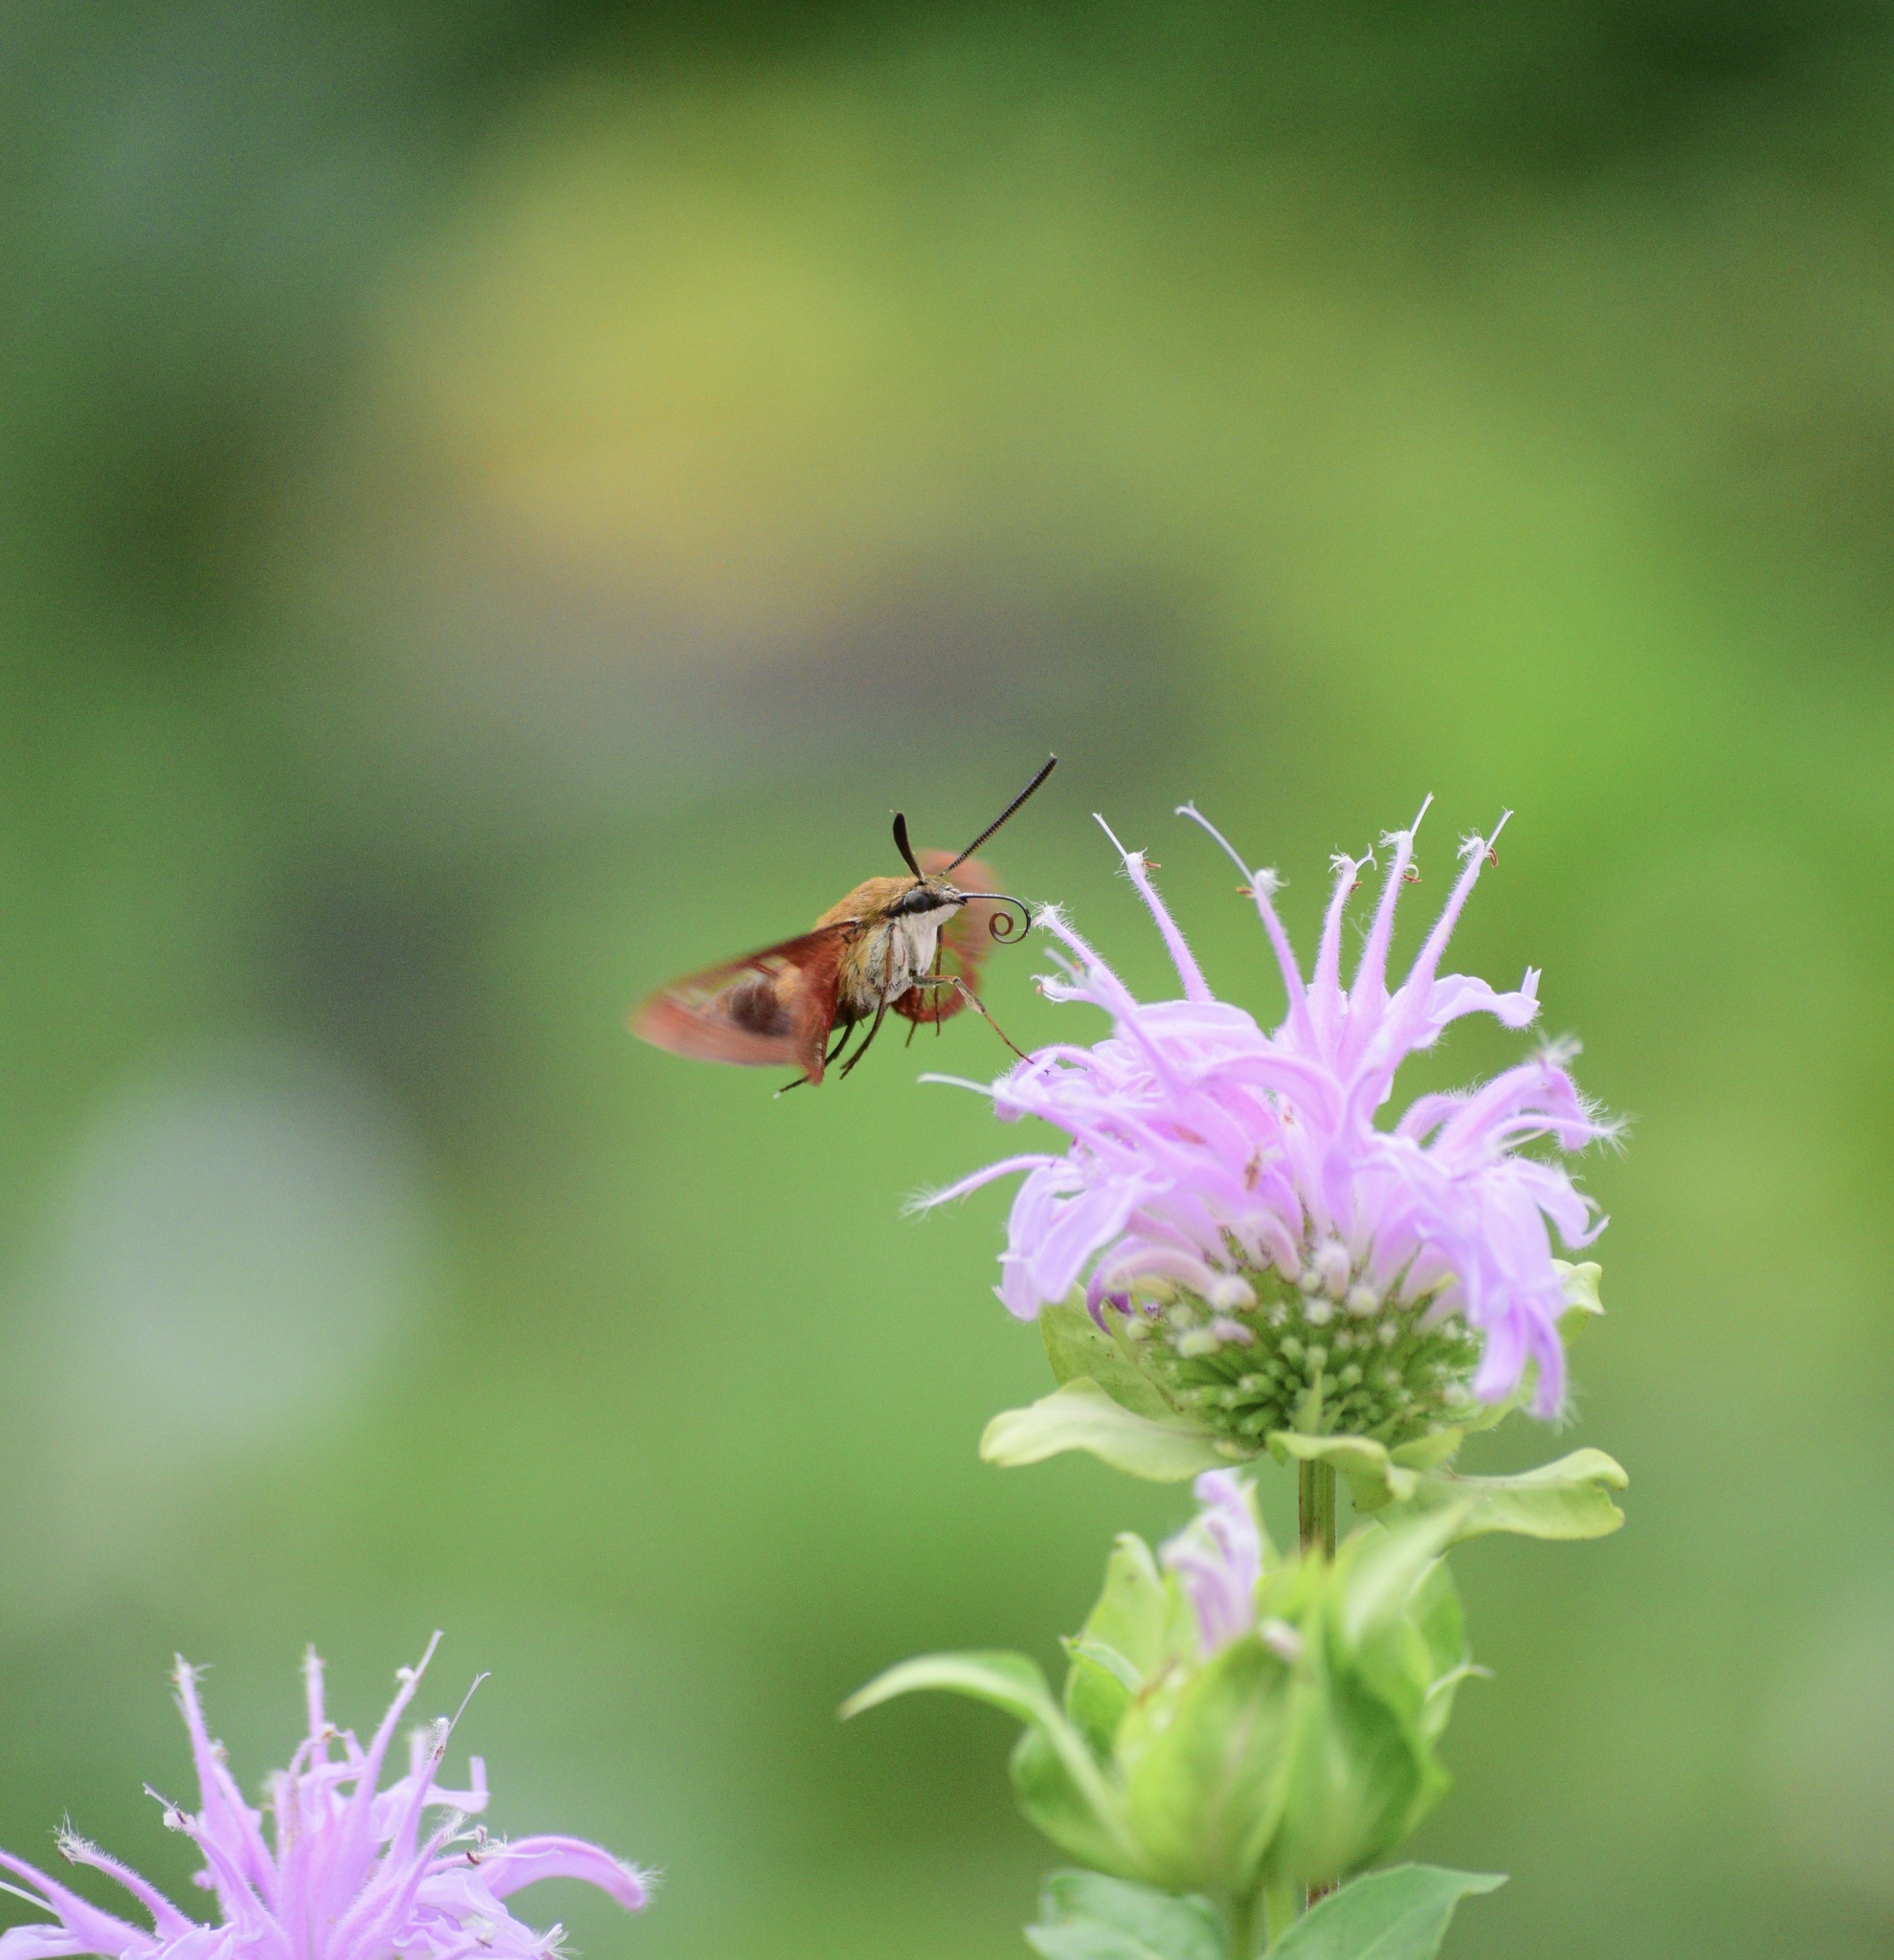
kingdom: Animalia
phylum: Arthropoda
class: Insecta
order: Lepidoptera
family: Sphingidae
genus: Hemaris
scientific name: Hemaris thysbe
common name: Common clear-wing
